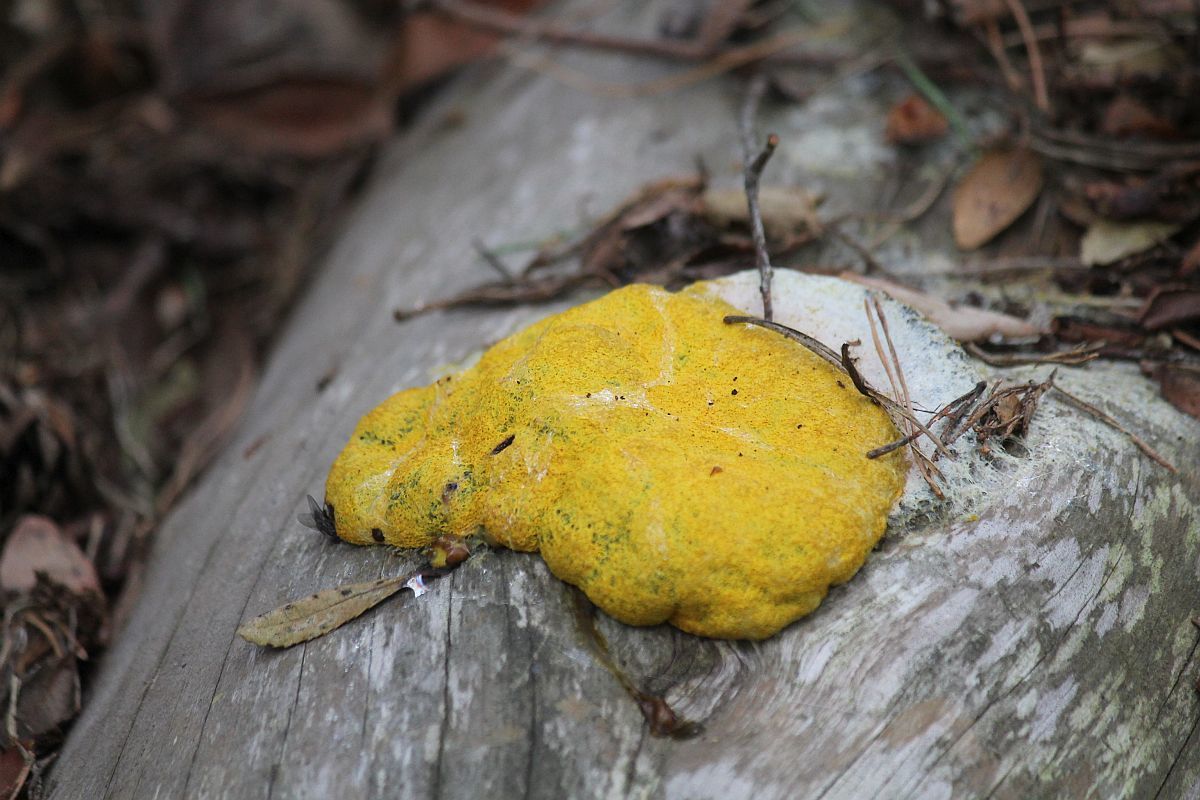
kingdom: Protozoa
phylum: Mycetozoa
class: Myxomycetes
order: Physarales
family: Physaraceae
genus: Fuligo
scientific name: Fuligo septica
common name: Dog vomit slime mold
